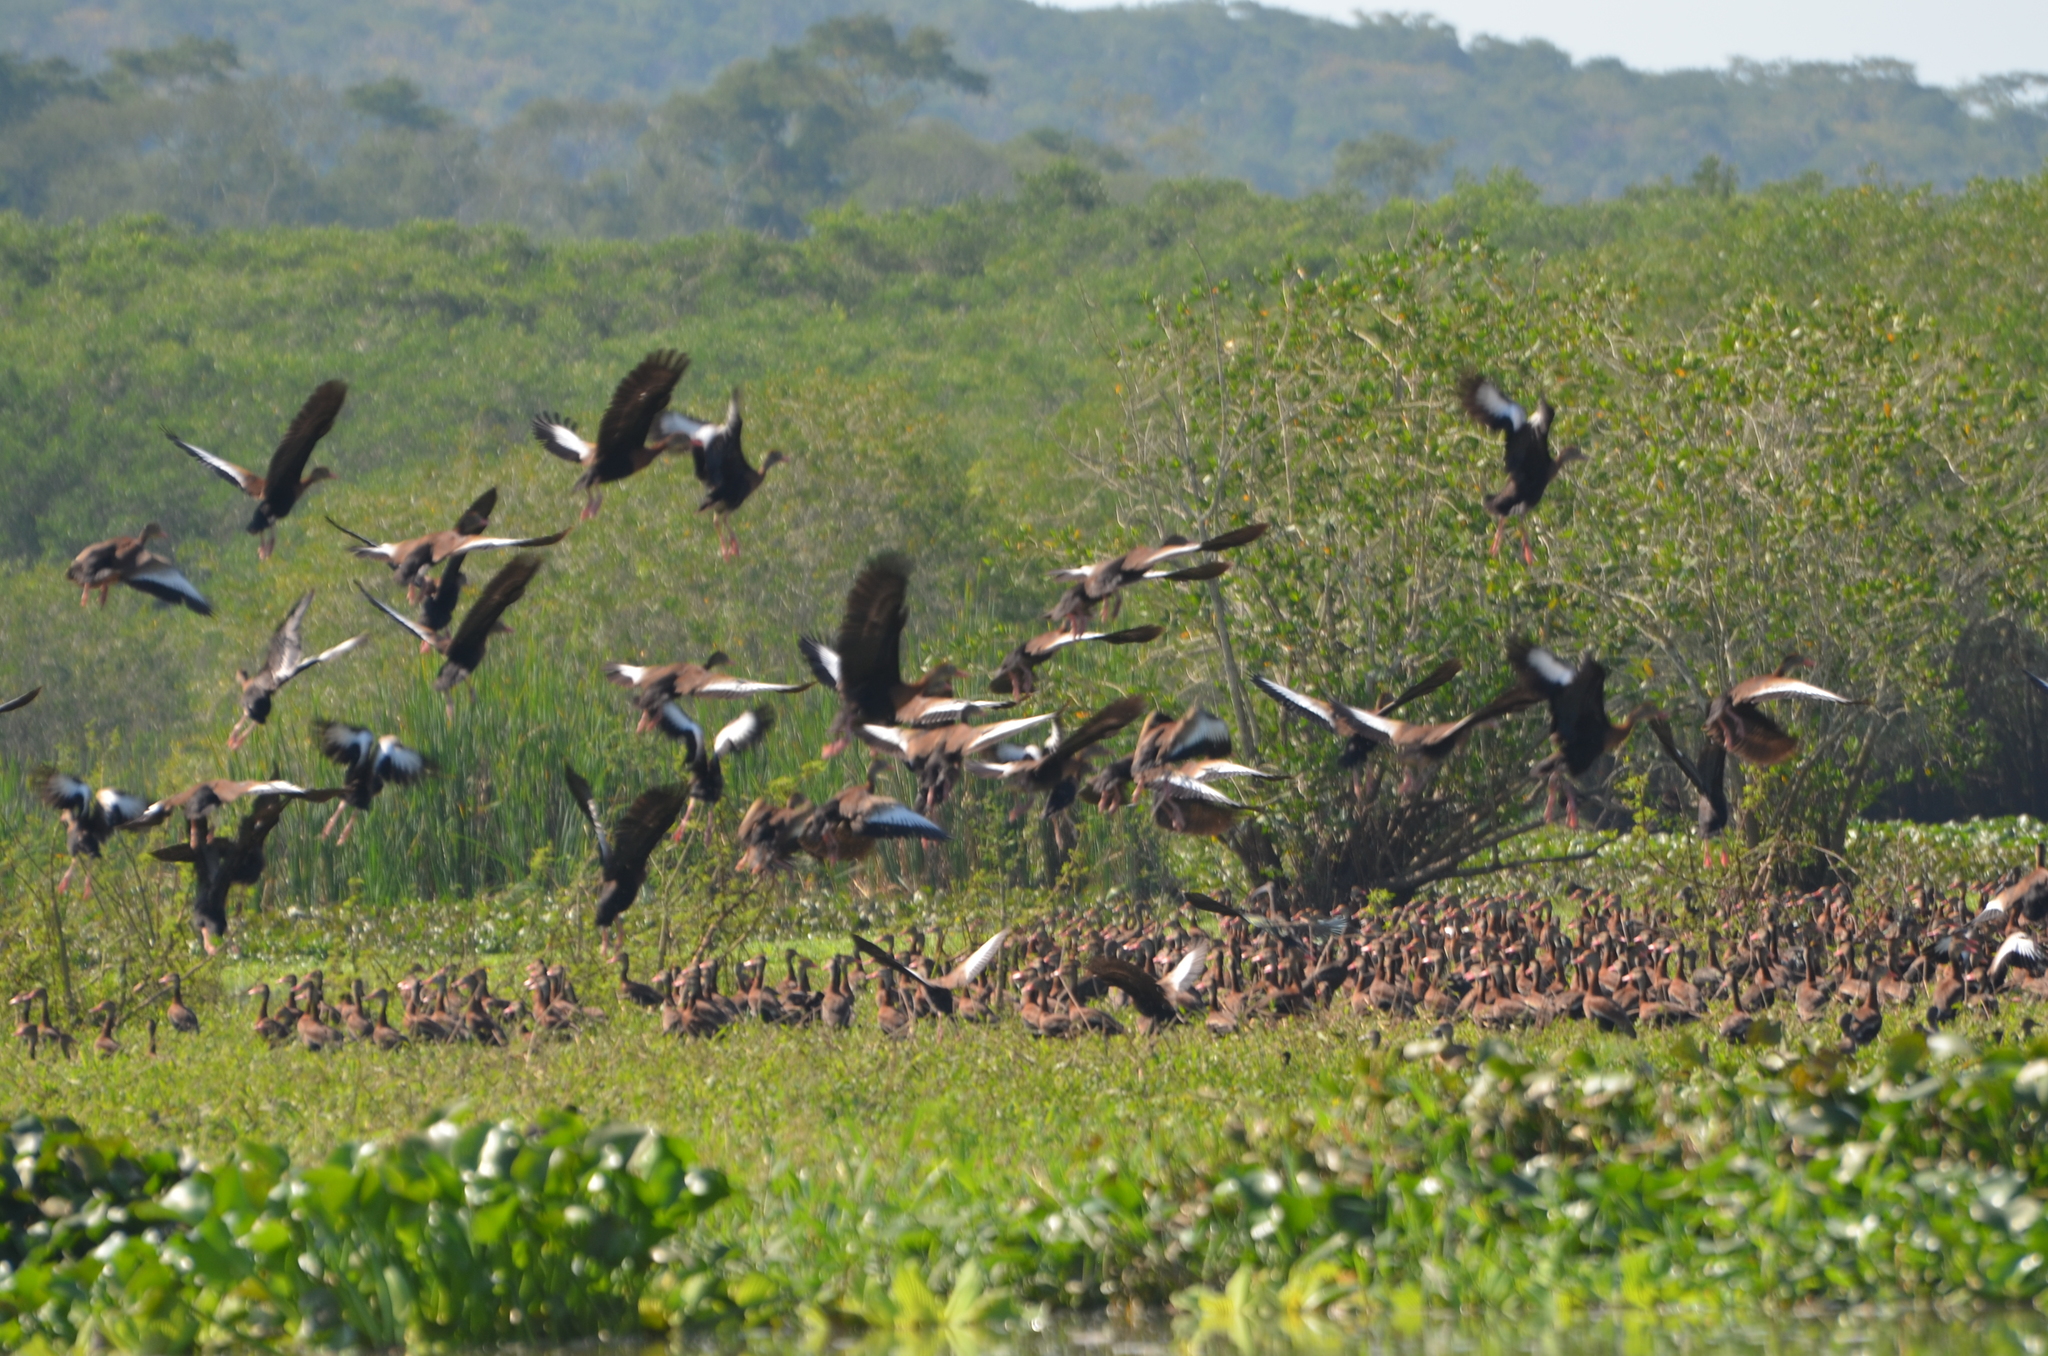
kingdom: Animalia
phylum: Chordata
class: Aves
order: Anseriformes
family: Anatidae
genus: Dendrocygna
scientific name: Dendrocygna autumnalis
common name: Black-bellied whistling duck
